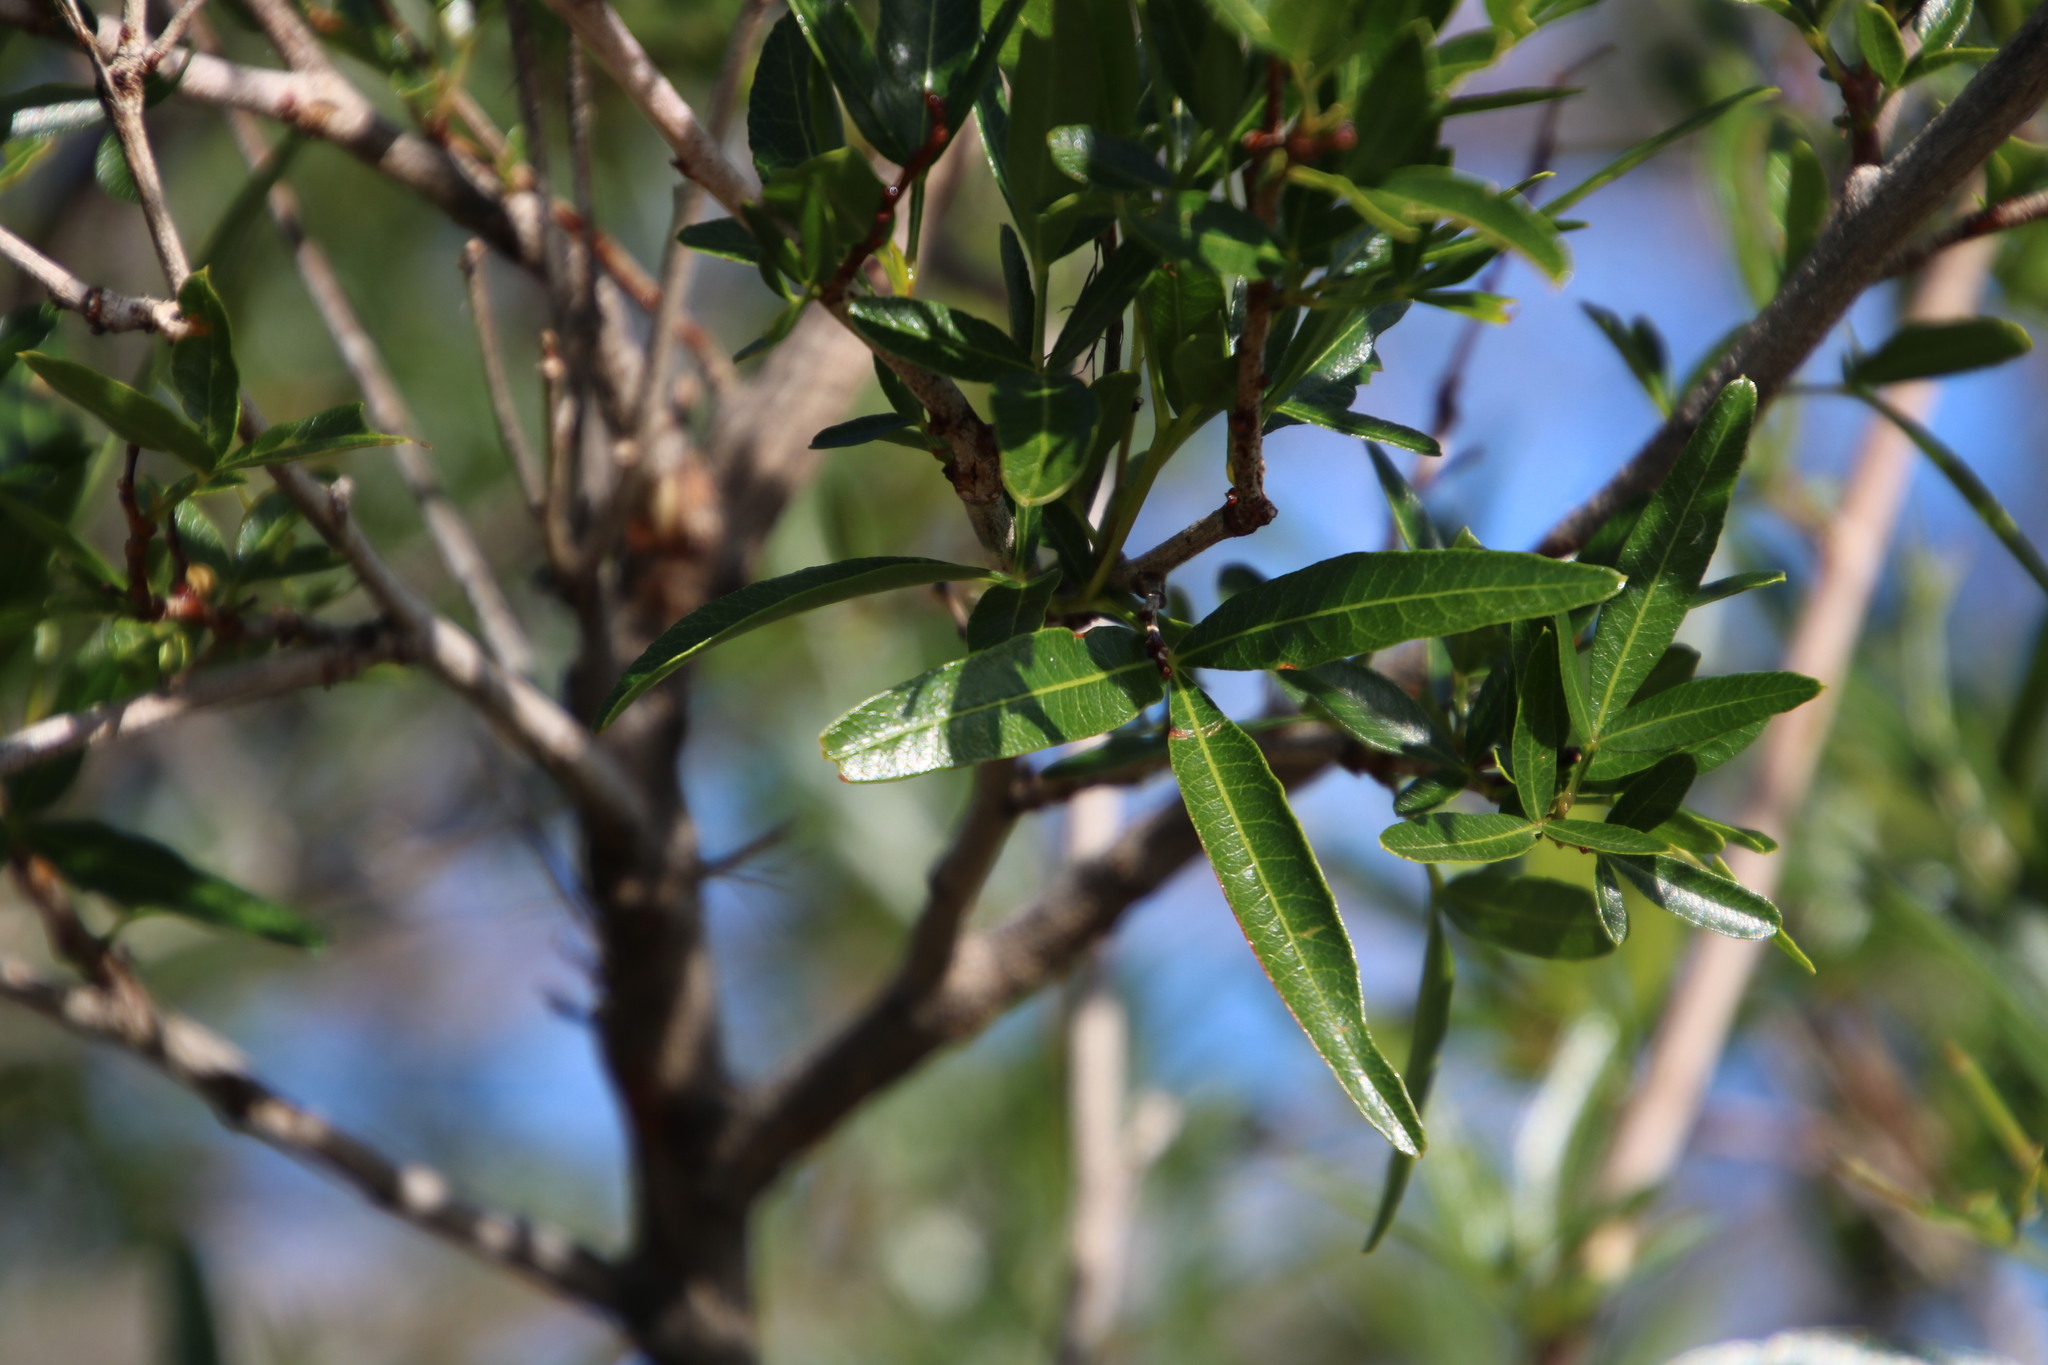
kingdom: Plantae
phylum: Tracheophyta
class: Magnoliopsida
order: Sapindales
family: Anacardiaceae
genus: Searsia
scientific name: Searsia lancea
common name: Cashew
